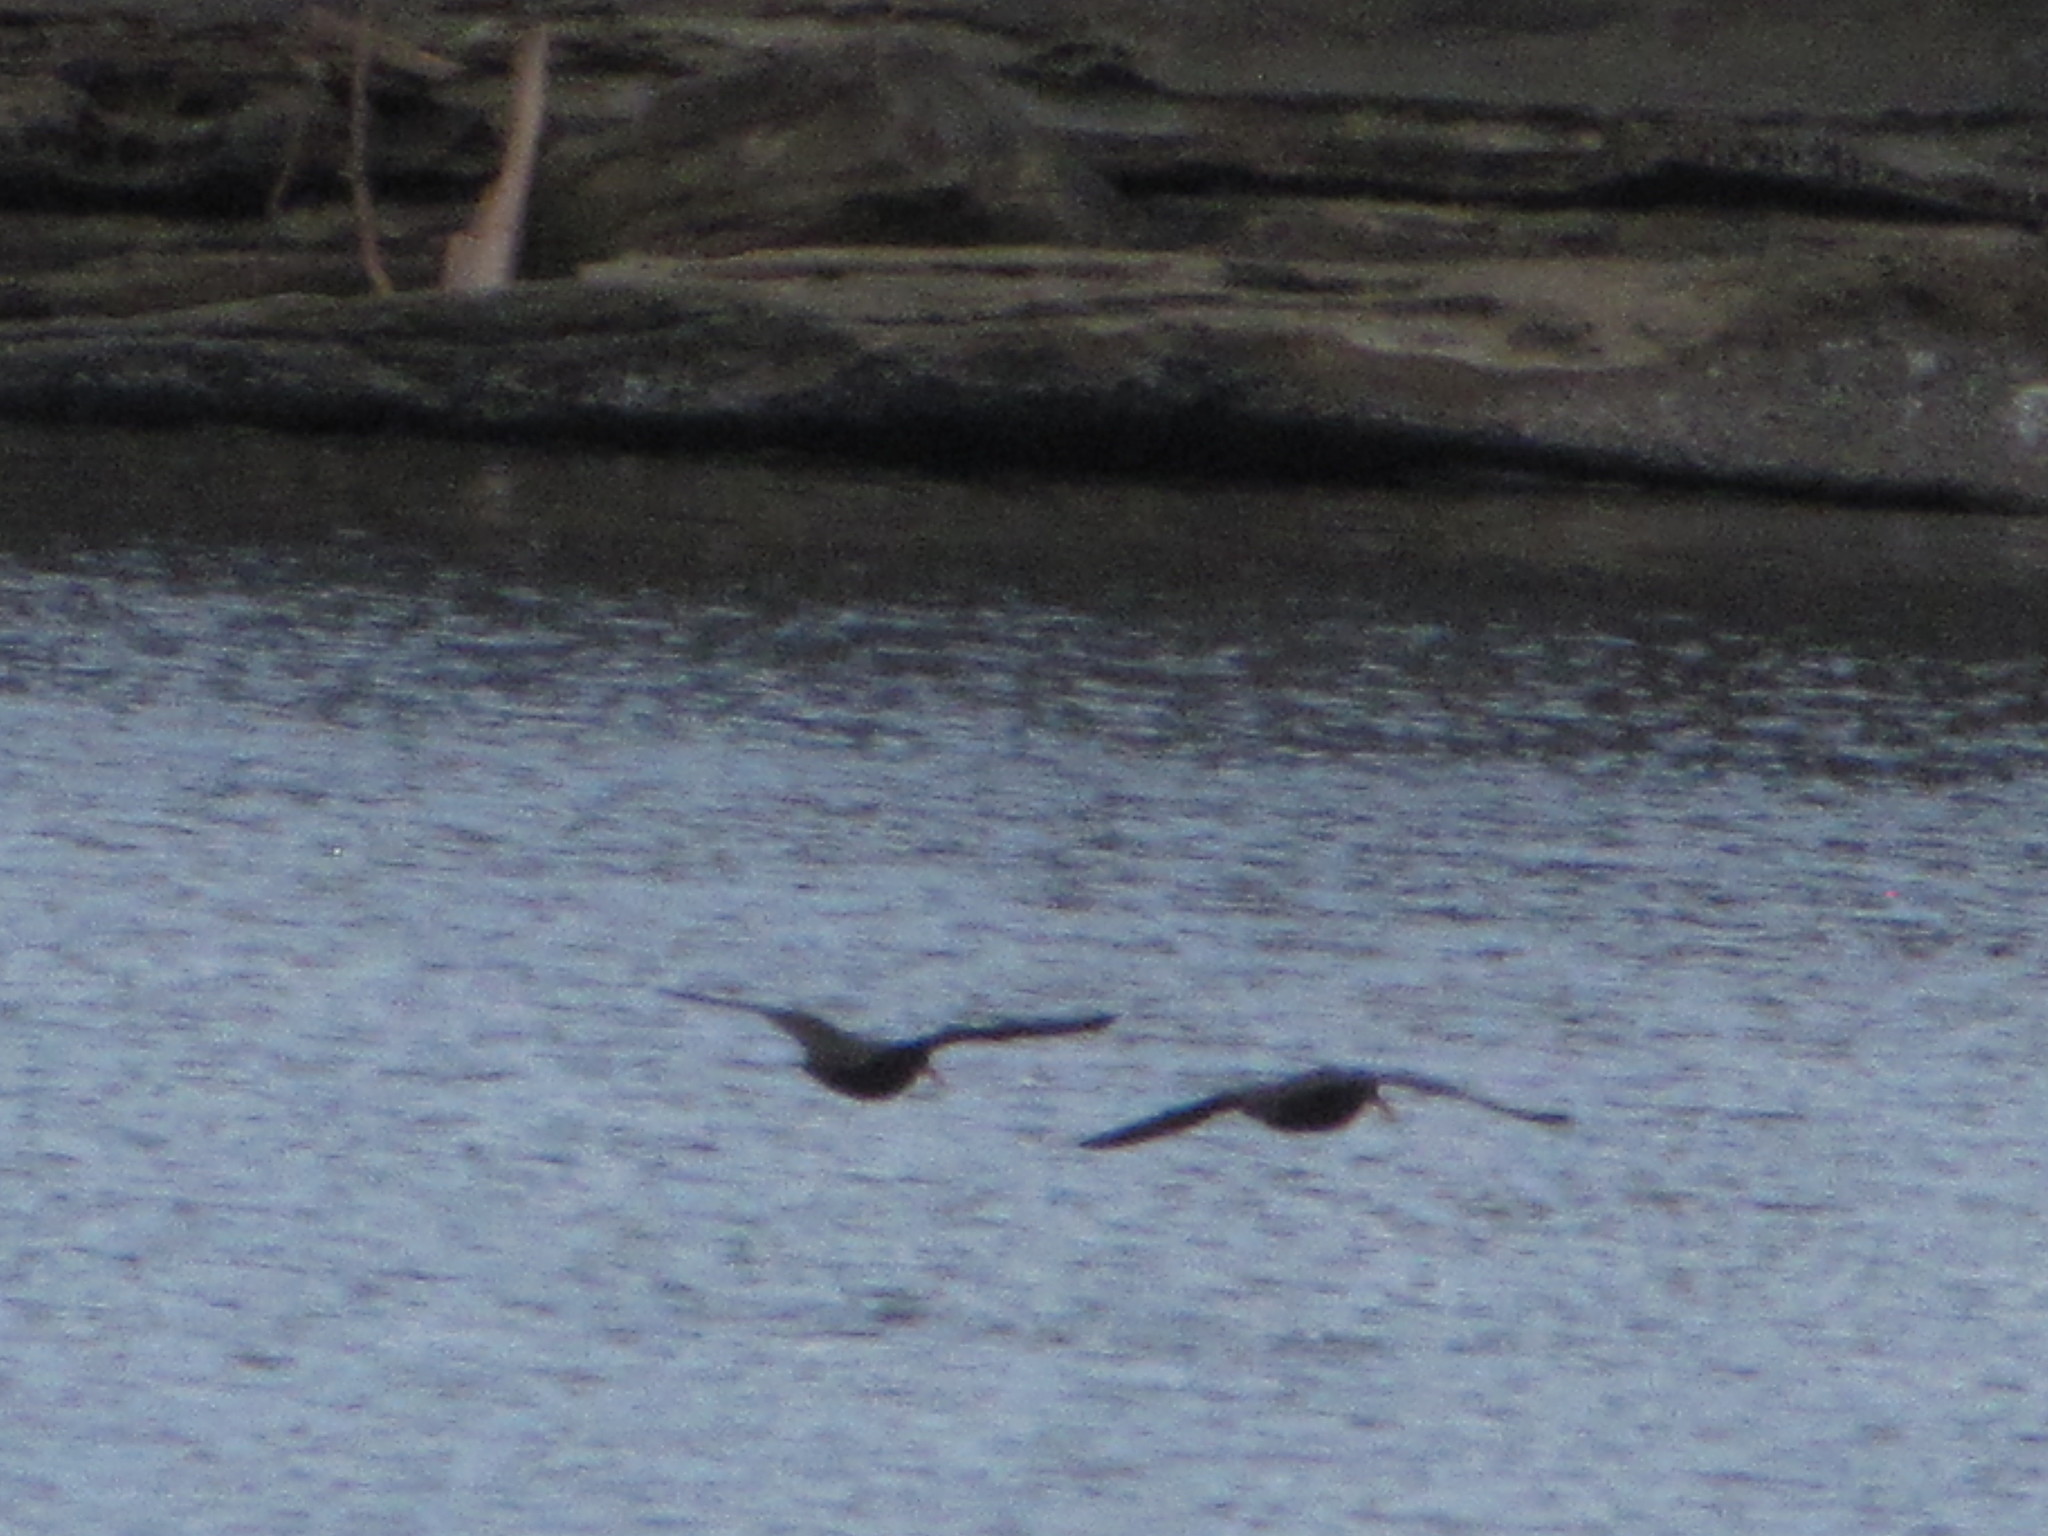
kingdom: Animalia
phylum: Chordata
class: Aves
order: Charadriiformes
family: Haematopodidae
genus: Haematopus
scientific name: Haematopus bachmani
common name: Black oystercatcher
